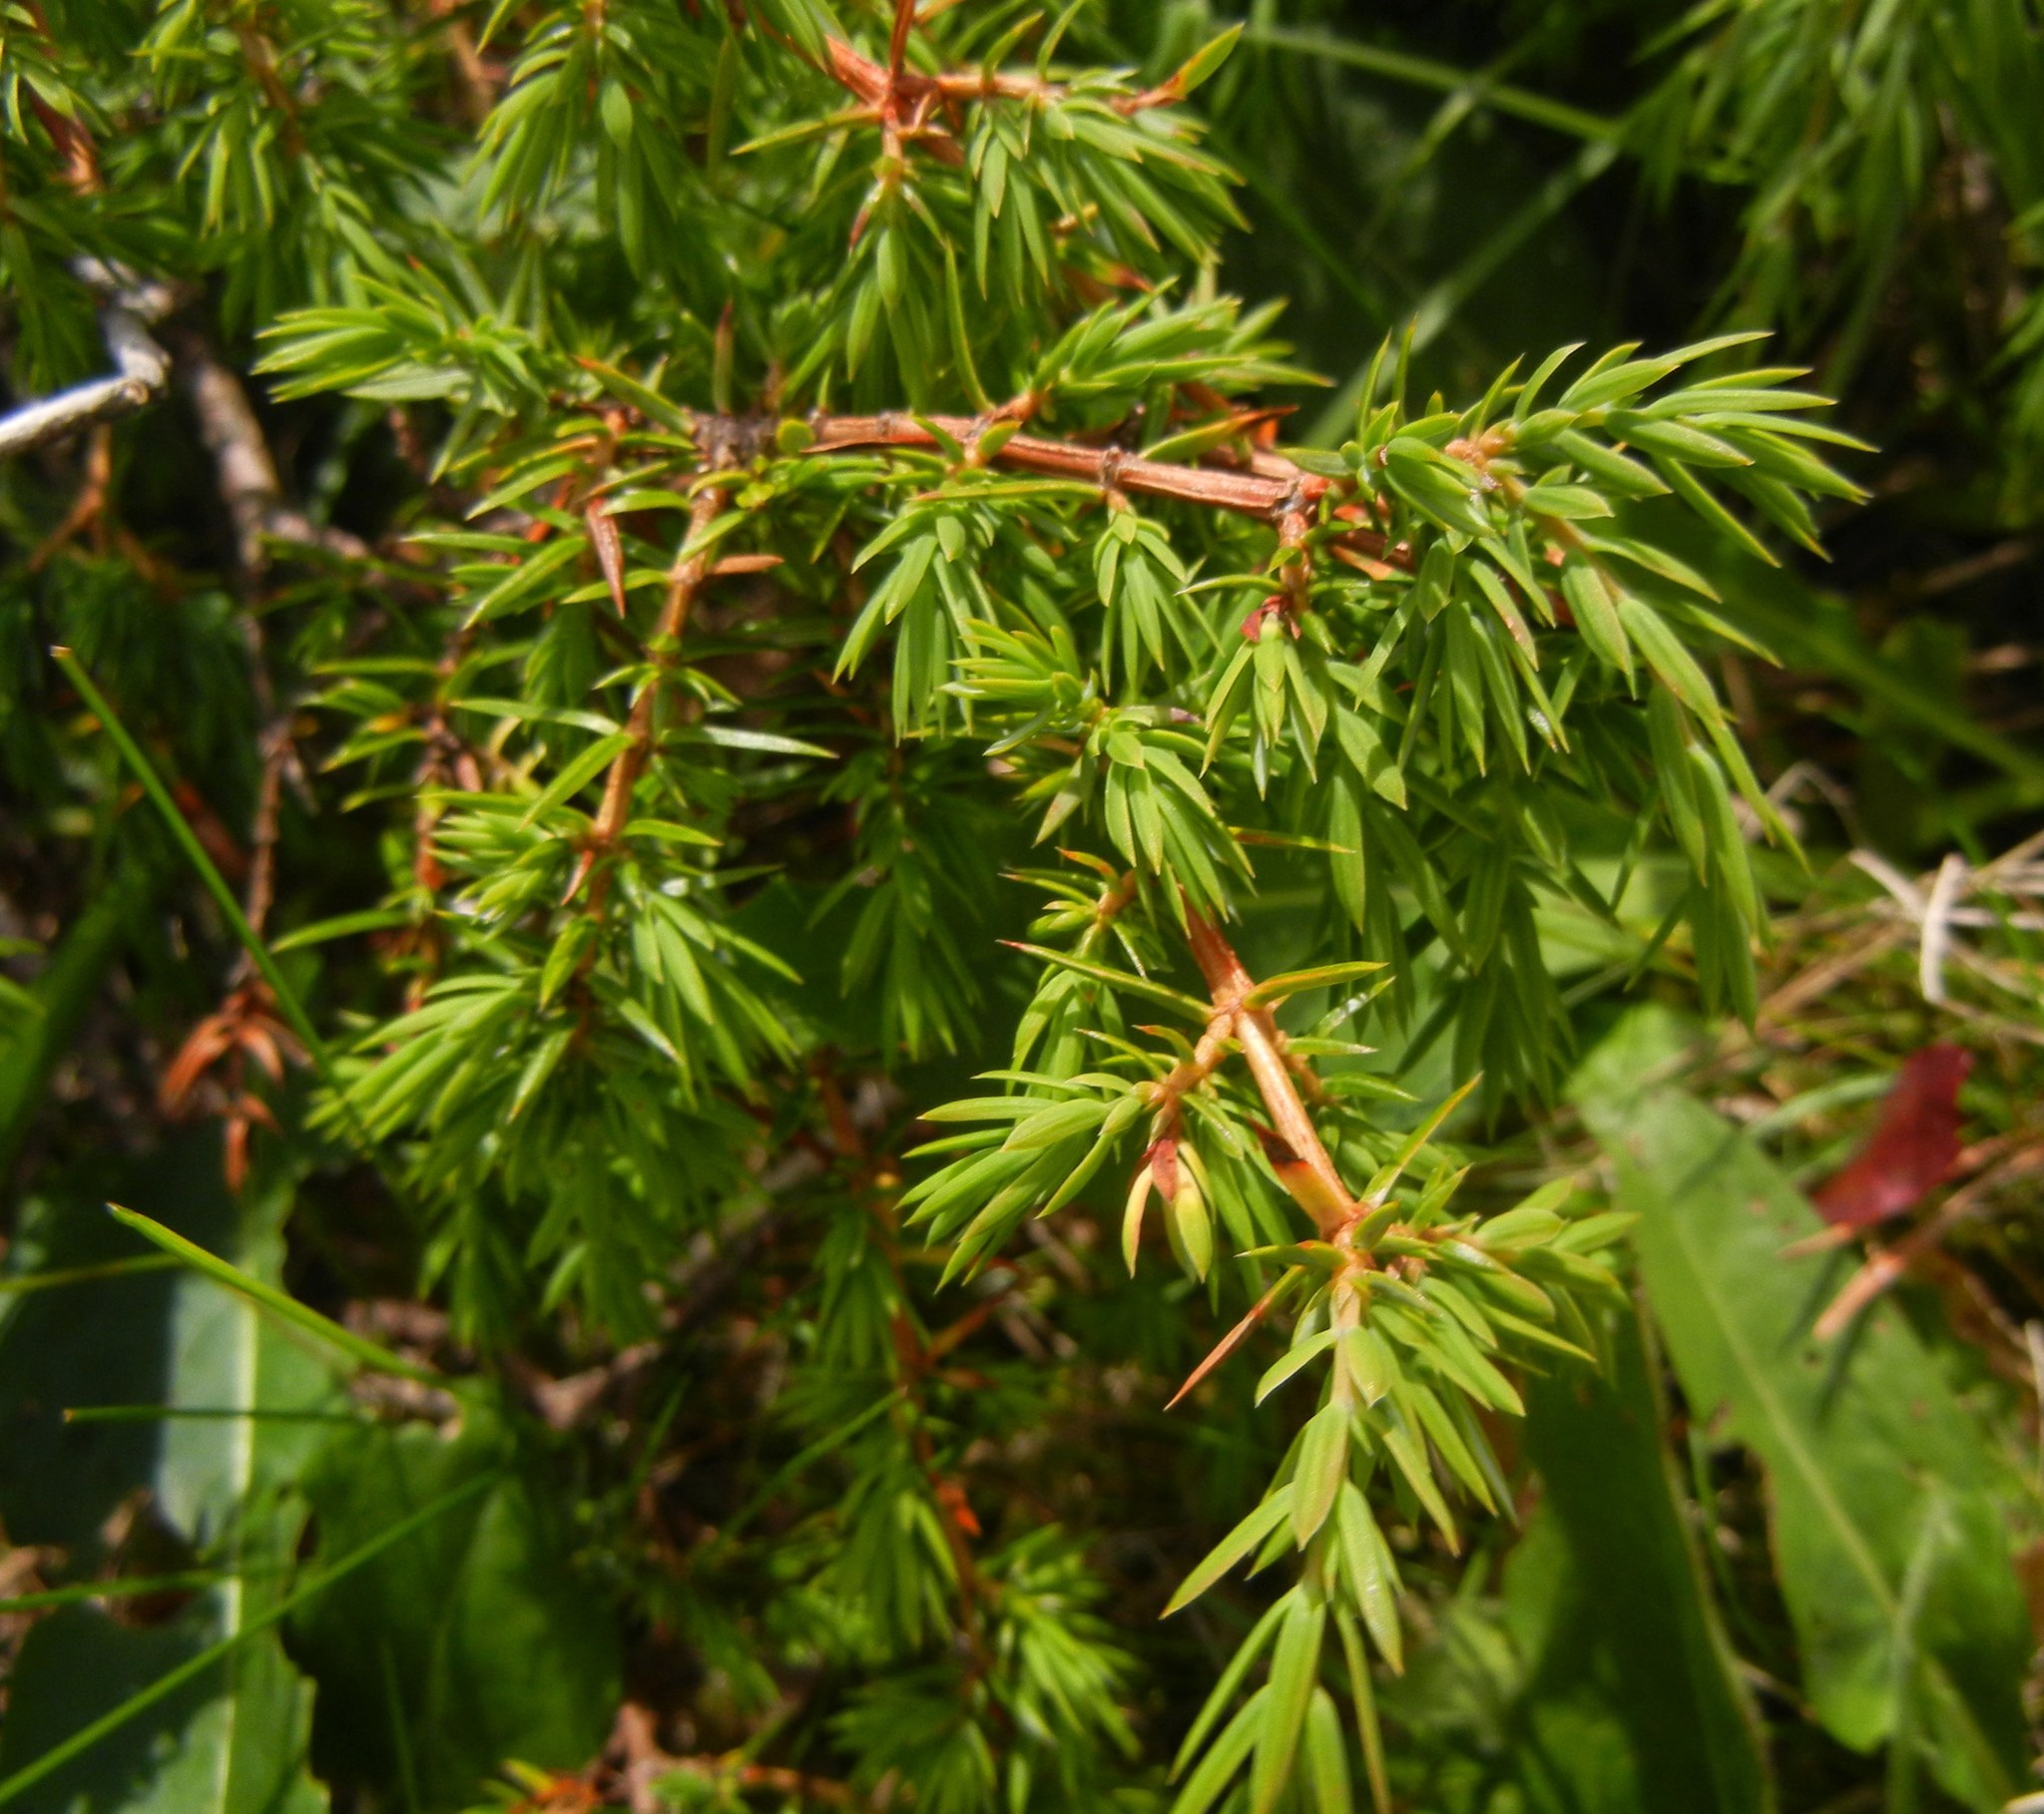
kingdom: Plantae
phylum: Tracheophyta
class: Pinopsida
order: Pinales
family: Cupressaceae
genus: Juniperus
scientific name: Juniperus communis
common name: Common juniper
